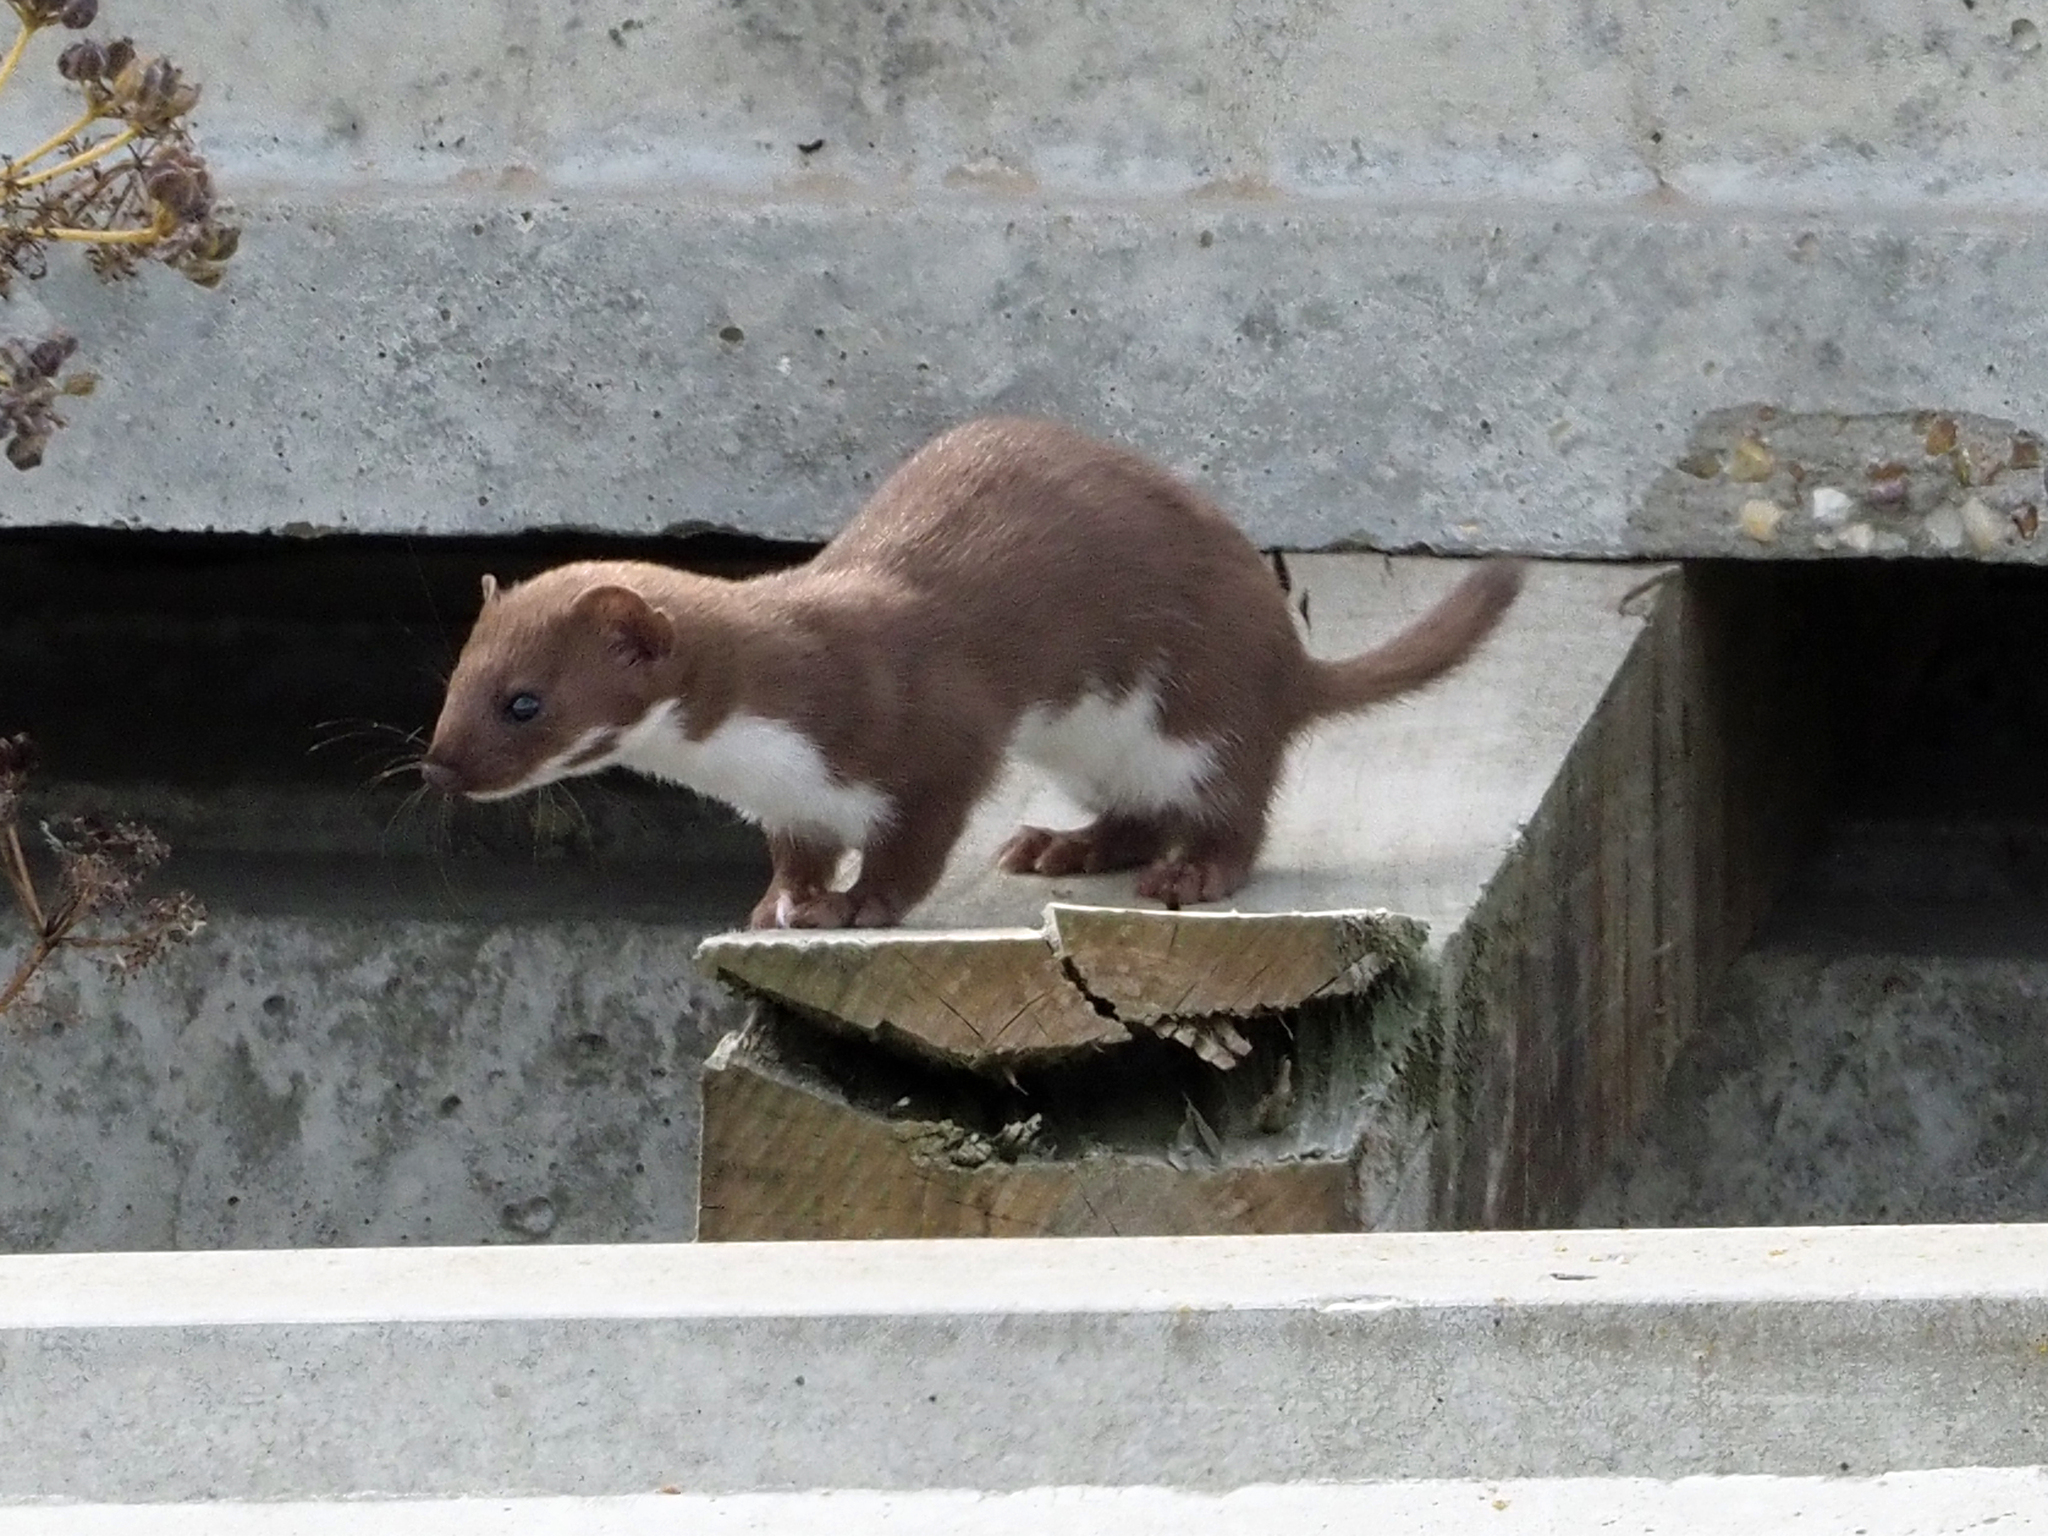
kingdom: Animalia
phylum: Chordata
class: Mammalia
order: Carnivora
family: Mustelidae
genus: Mustela
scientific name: Mustela nivalis
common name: Least weasel
